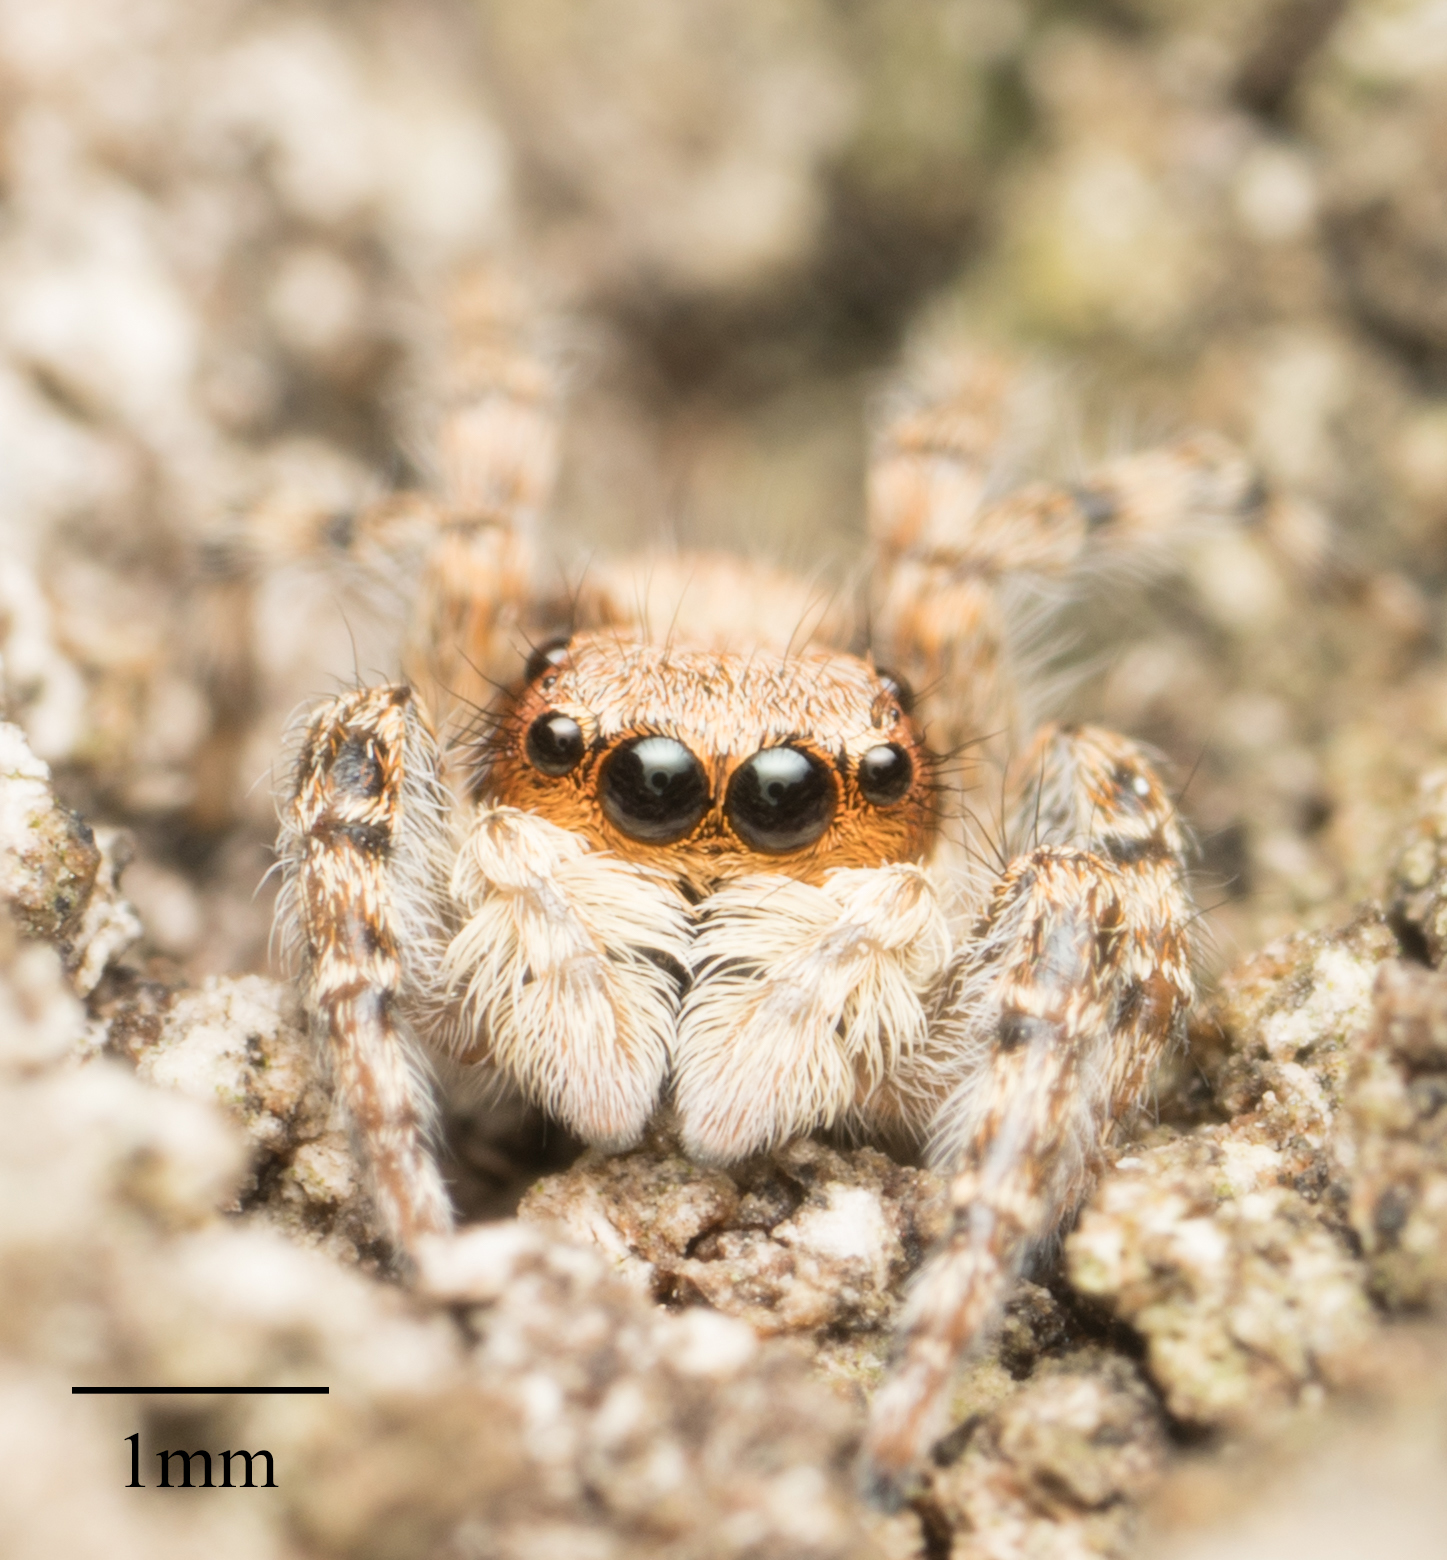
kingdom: Animalia
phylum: Arthropoda
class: Arachnida
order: Araneae
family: Salticidae
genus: Menemerus
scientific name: Menemerus bivittatus
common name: Gray wall jumper
